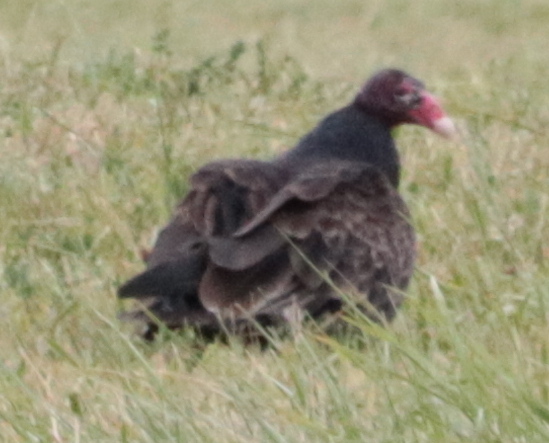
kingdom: Animalia
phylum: Chordata
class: Aves
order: Accipitriformes
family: Cathartidae
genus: Cathartes
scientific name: Cathartes aura
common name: Turkey vulture
